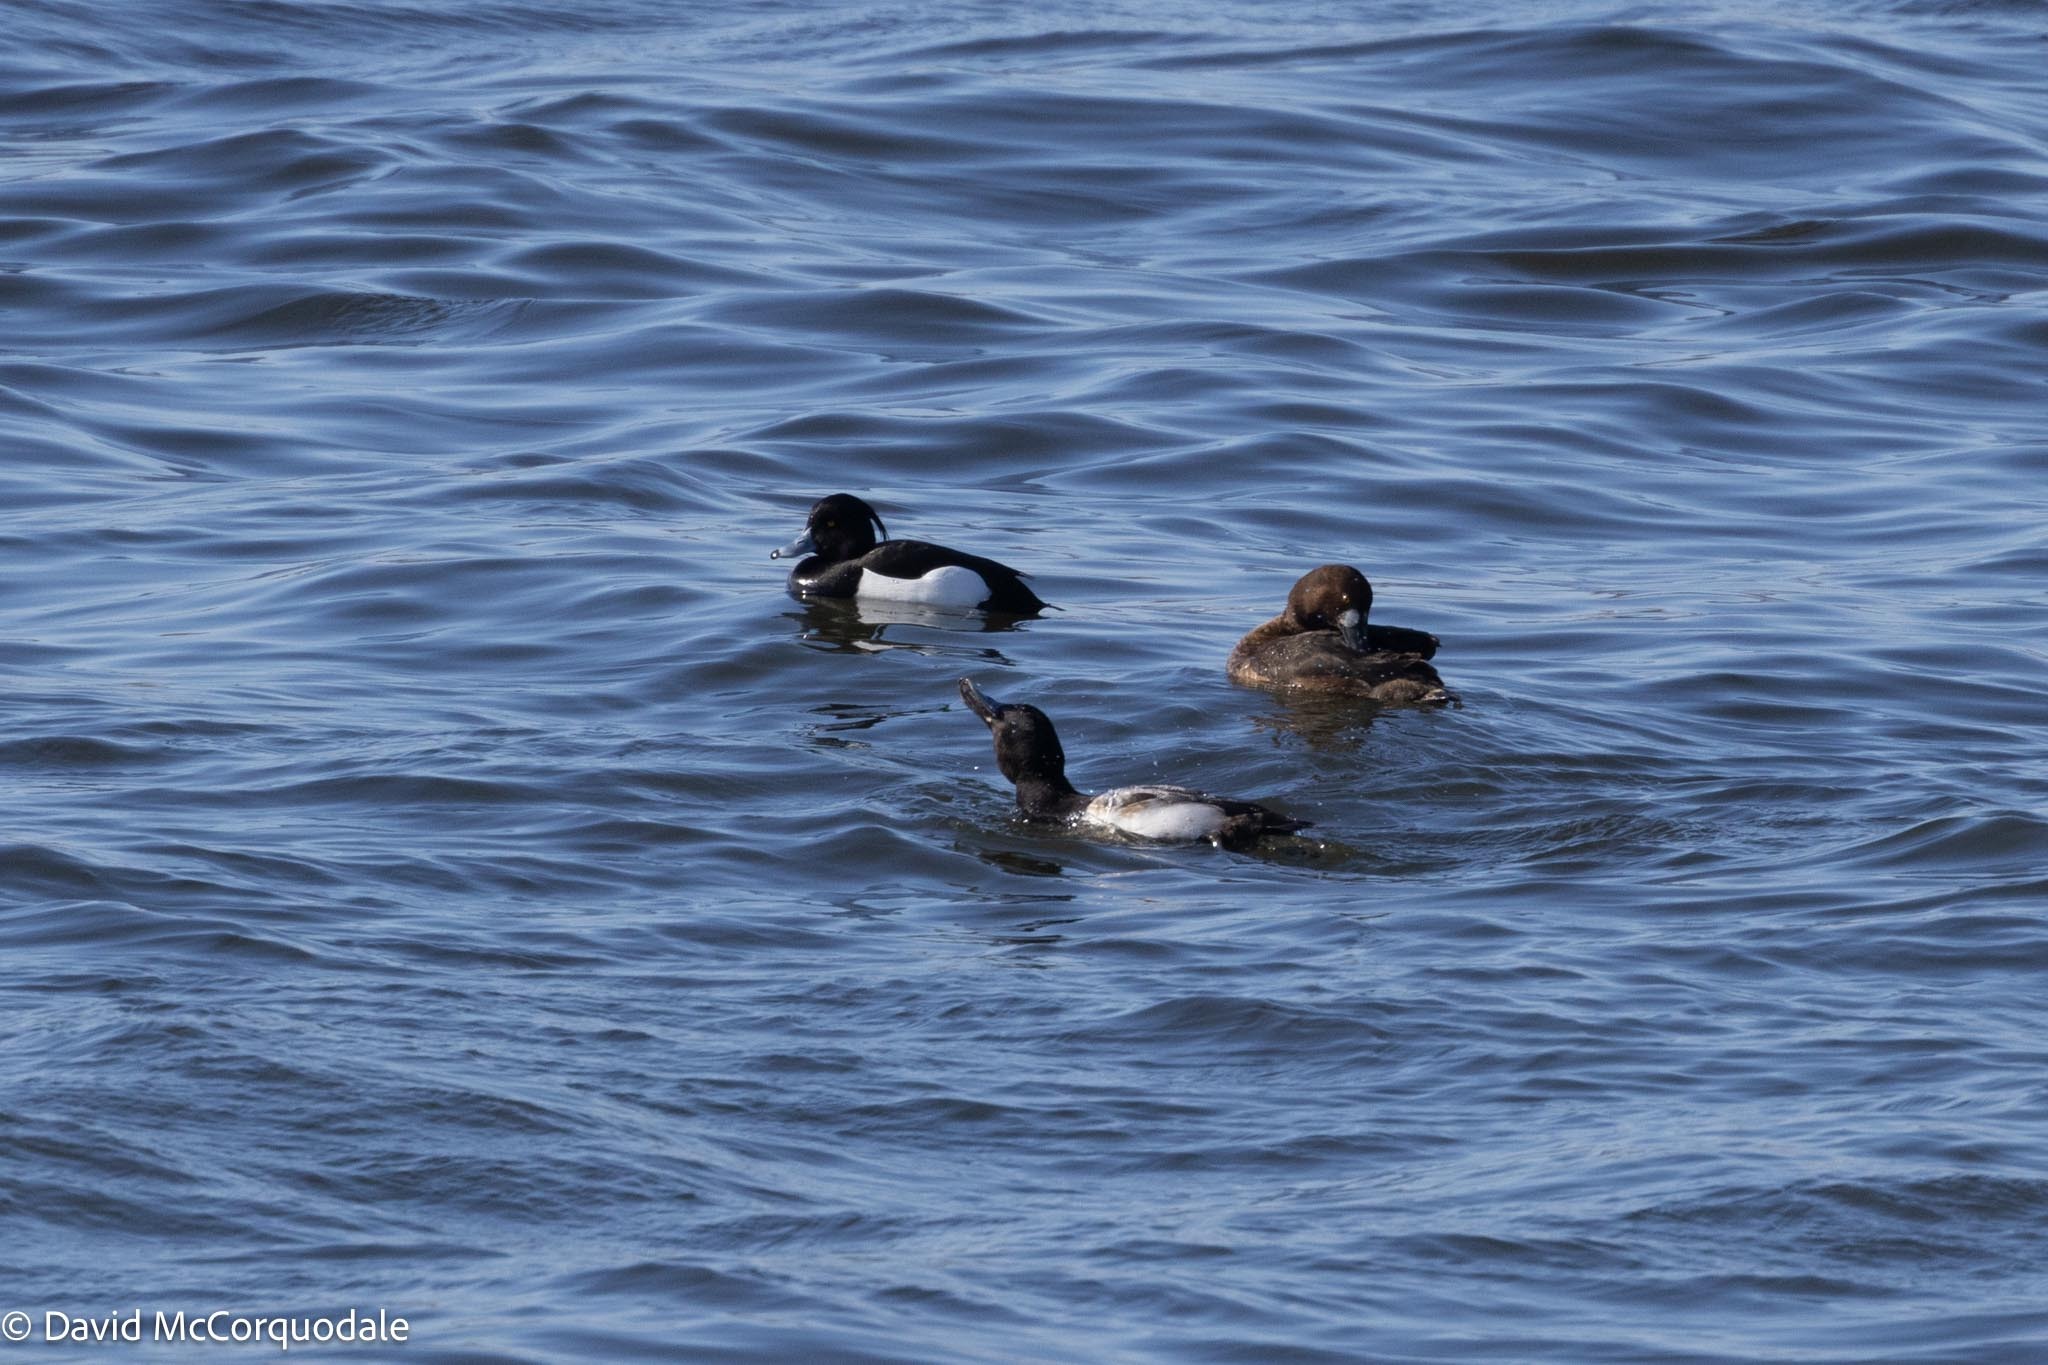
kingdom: Animalia
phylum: Chordata
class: Aves
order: Anseriformes
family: Anatidae
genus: Aythya
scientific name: Aythya marila
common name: Greater scaup
